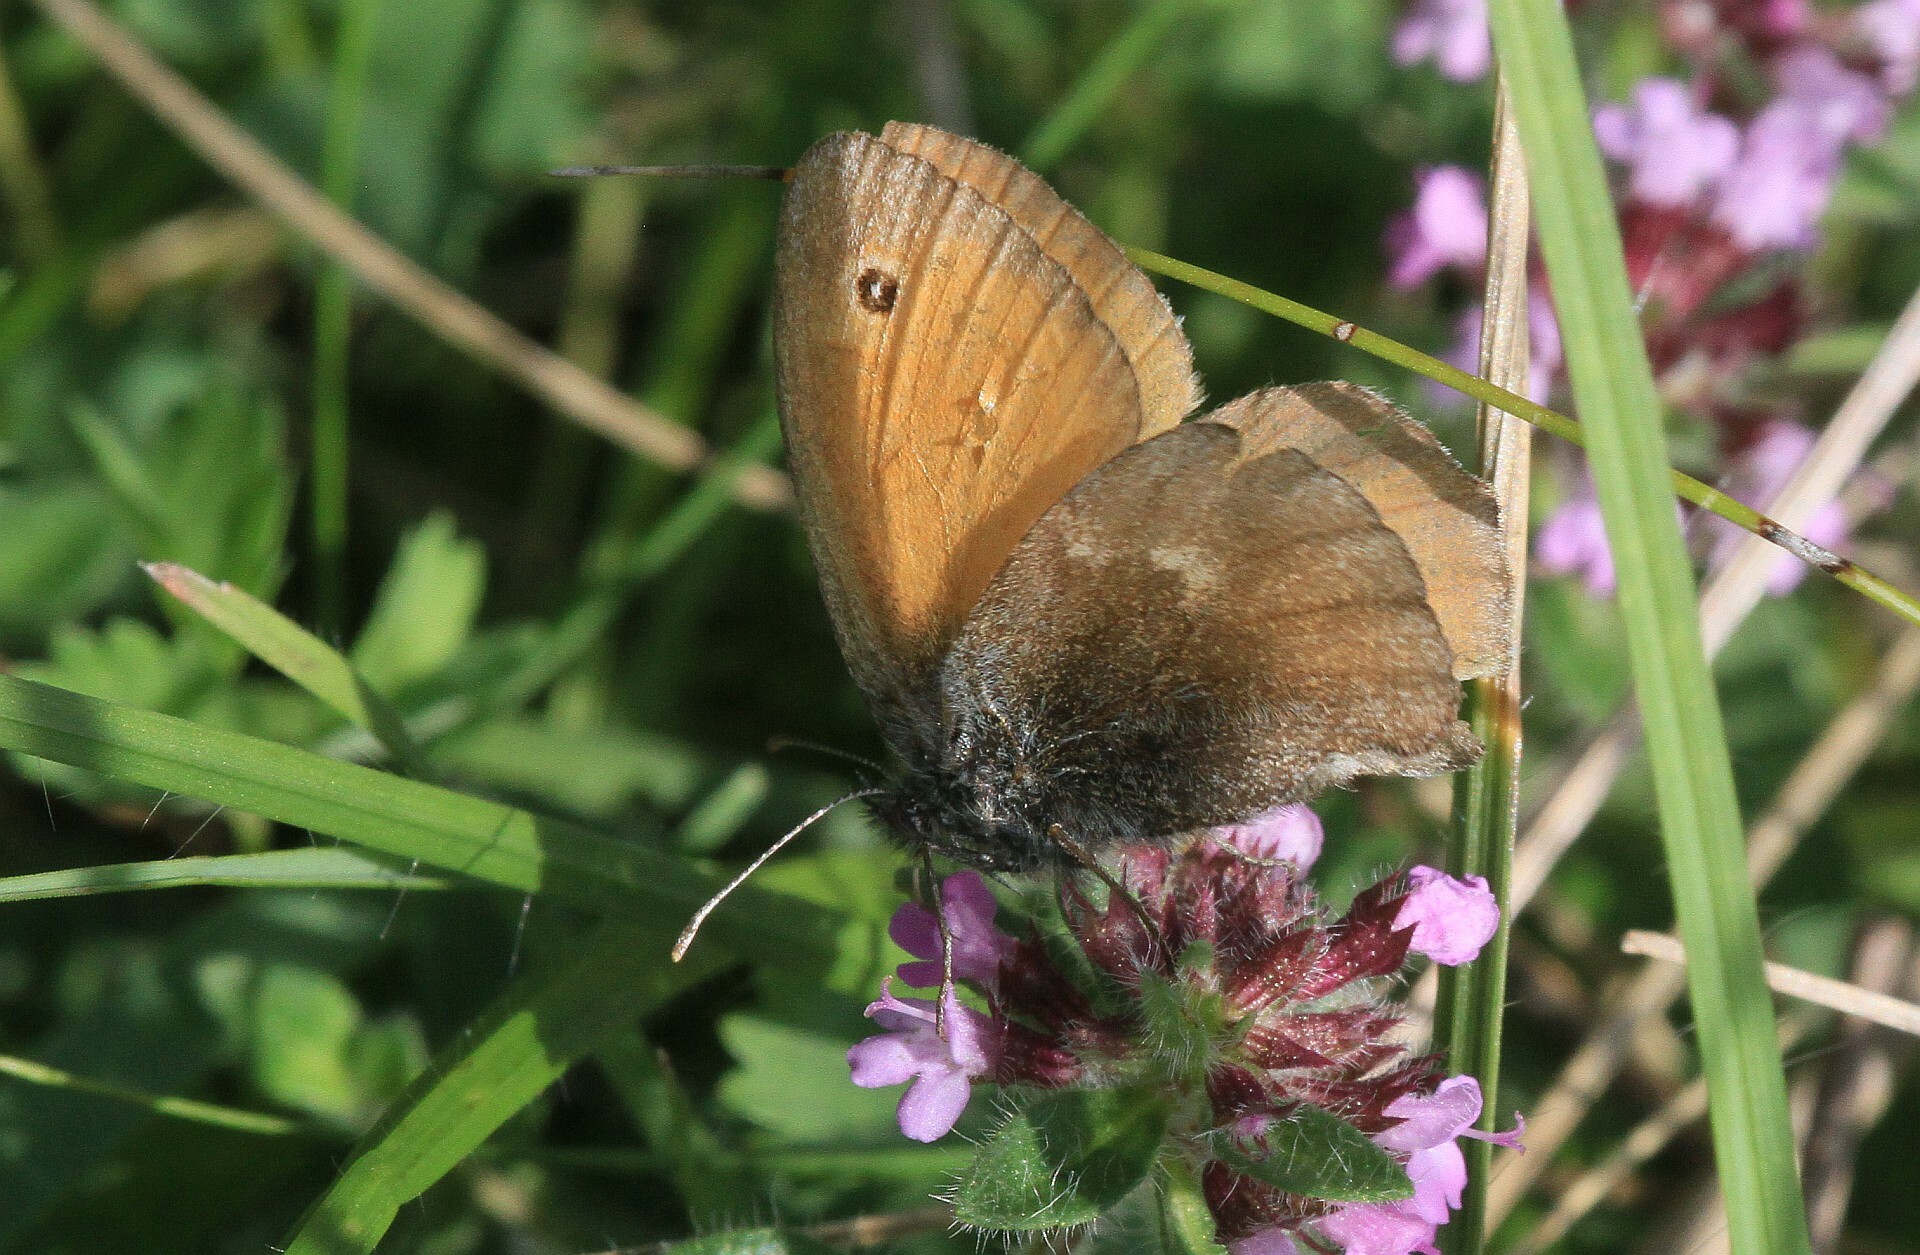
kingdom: Animalia
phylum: Arthropoda
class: Insecta
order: Lepidoptera
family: Nymphalidae
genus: Coenonympha
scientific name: Coenonympha pamphilus
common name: Small heath
